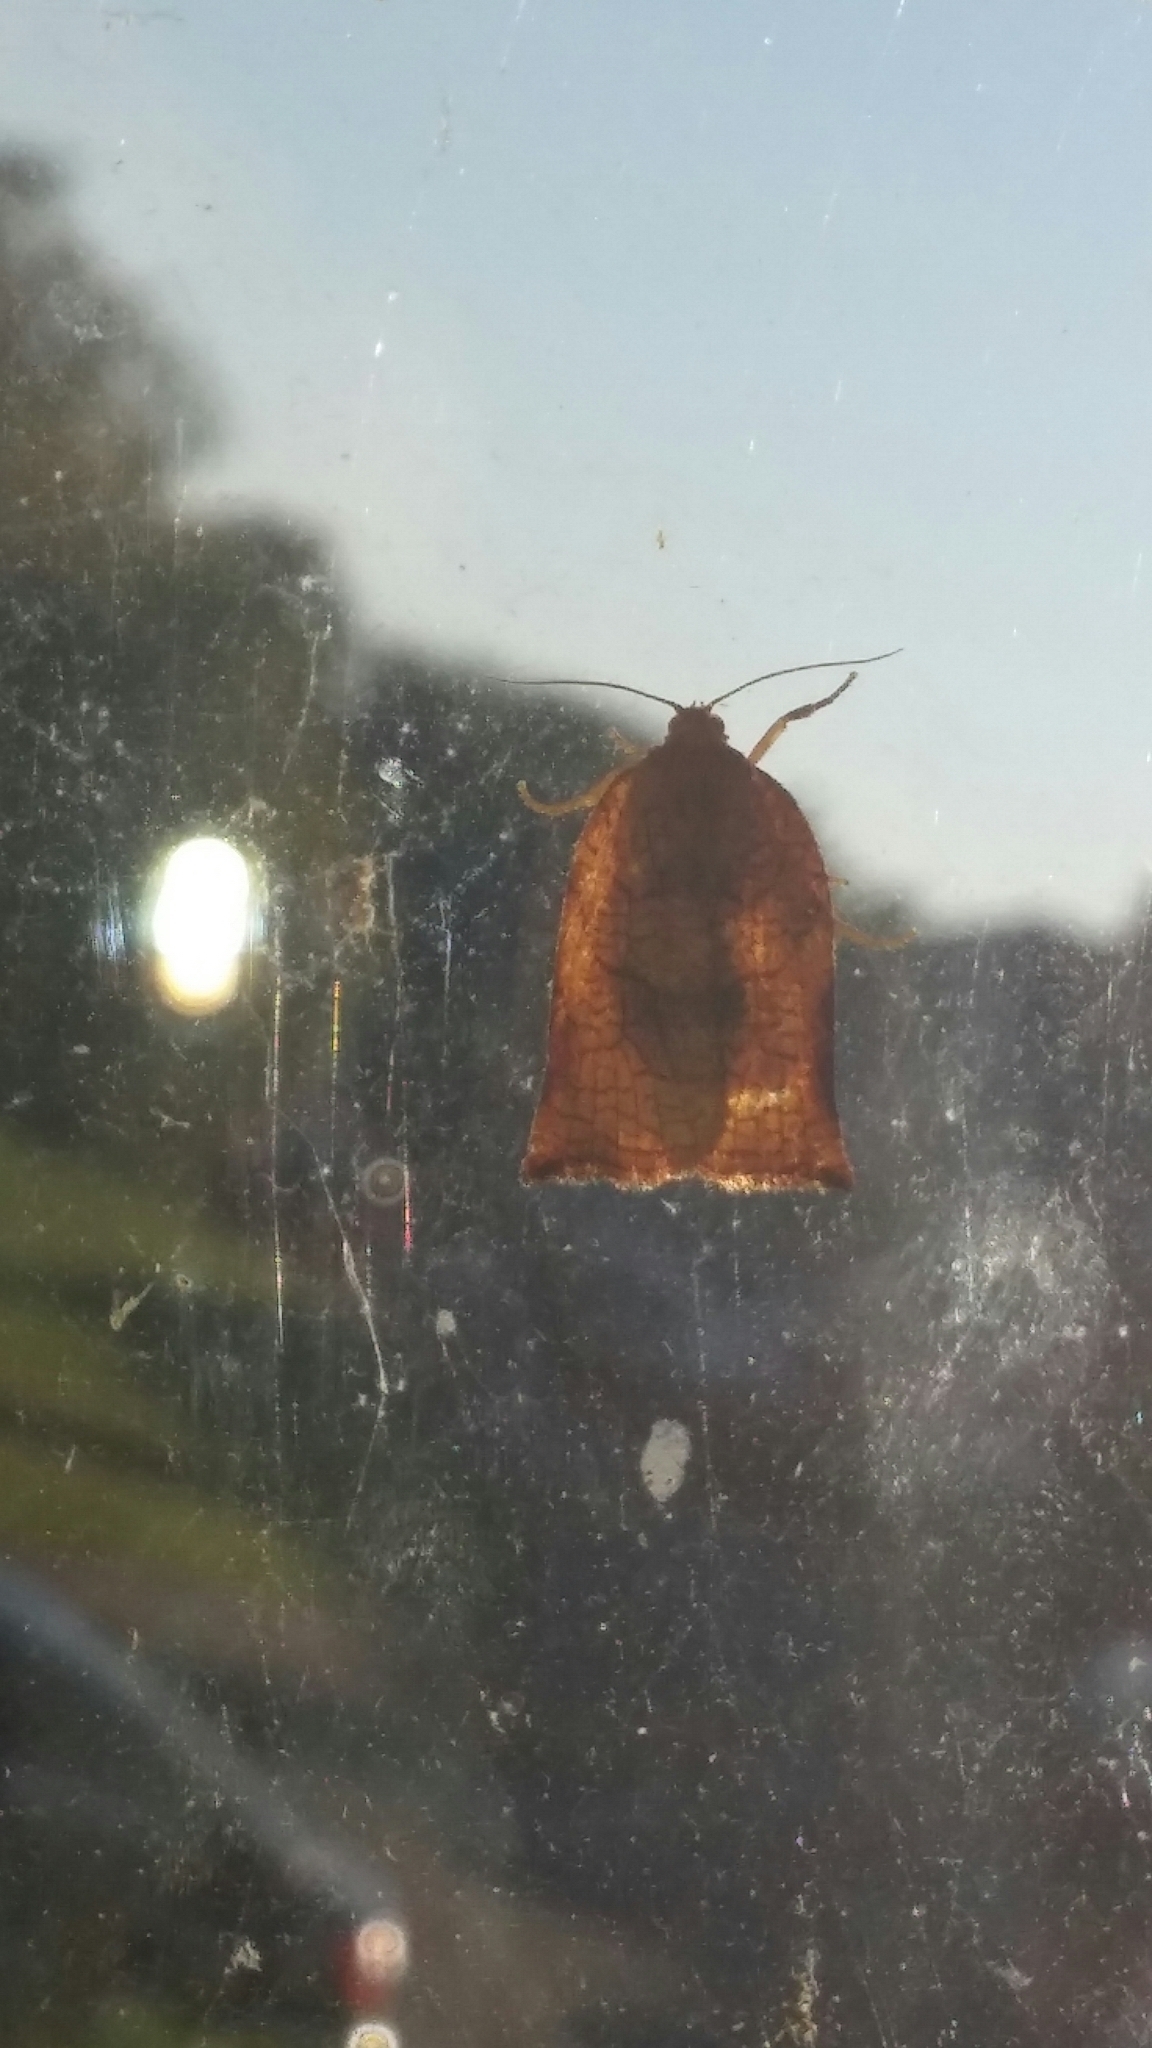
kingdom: Animalia
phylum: Arthropoda
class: Insecta
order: Lepidoptera
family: Tortricidae
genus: Archips
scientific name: Archips podana
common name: Large fruit-tree tortrix
